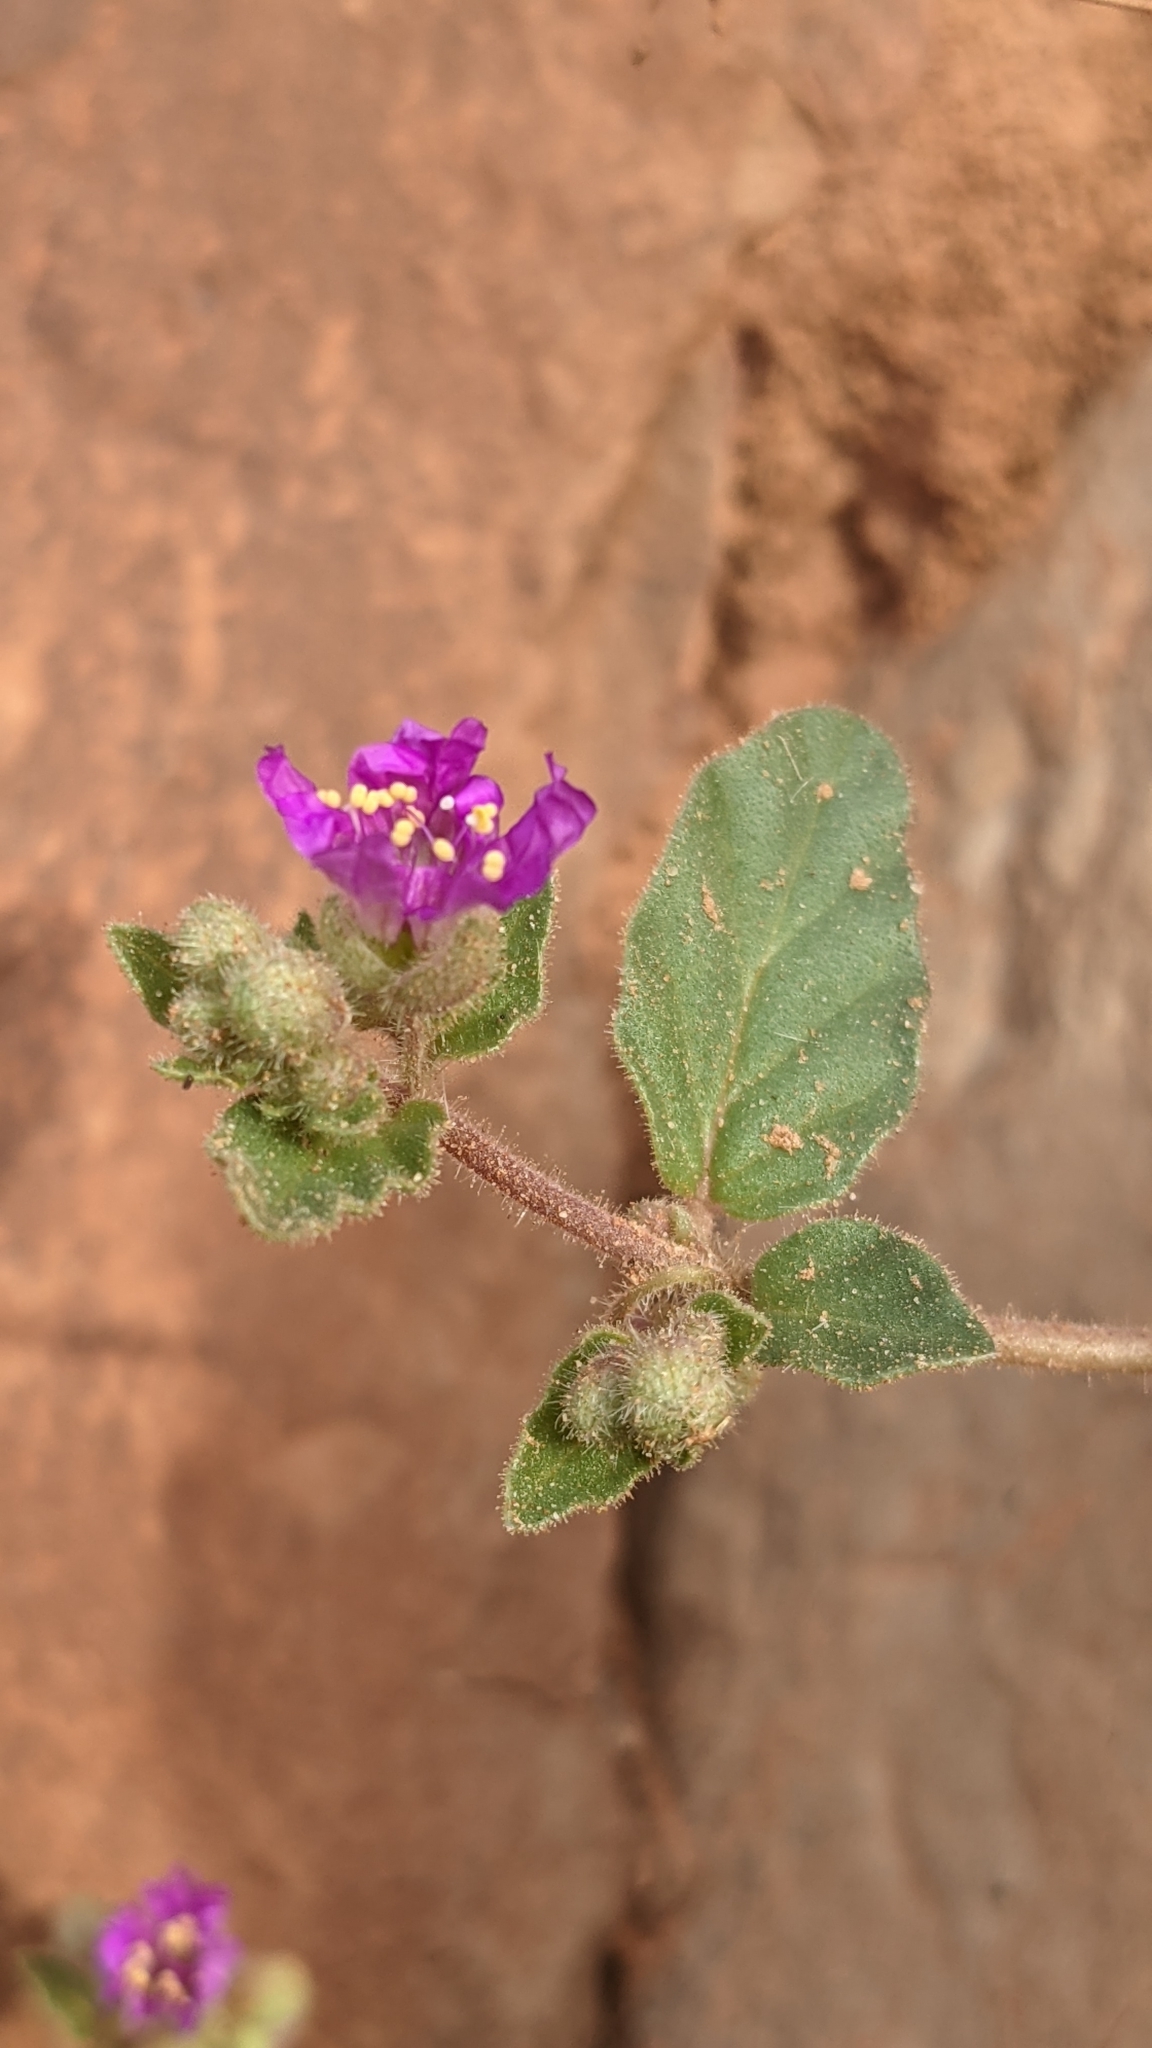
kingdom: Plantae
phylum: Tracheophyta
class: Magnoliopsida
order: Caryophyllales
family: Nyctaginaceae
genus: Allionia
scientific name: Allionia incarnata
